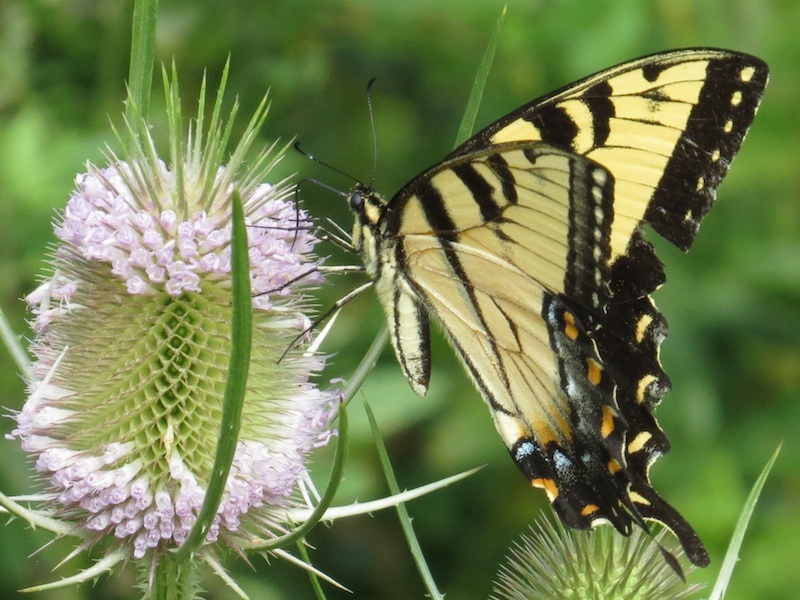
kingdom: Animalia
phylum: Arthropoda
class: Insecta
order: Lepidoptera
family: Papilionidae
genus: Papilio
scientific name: Papilio glaucus
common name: Tiger swallowtail
